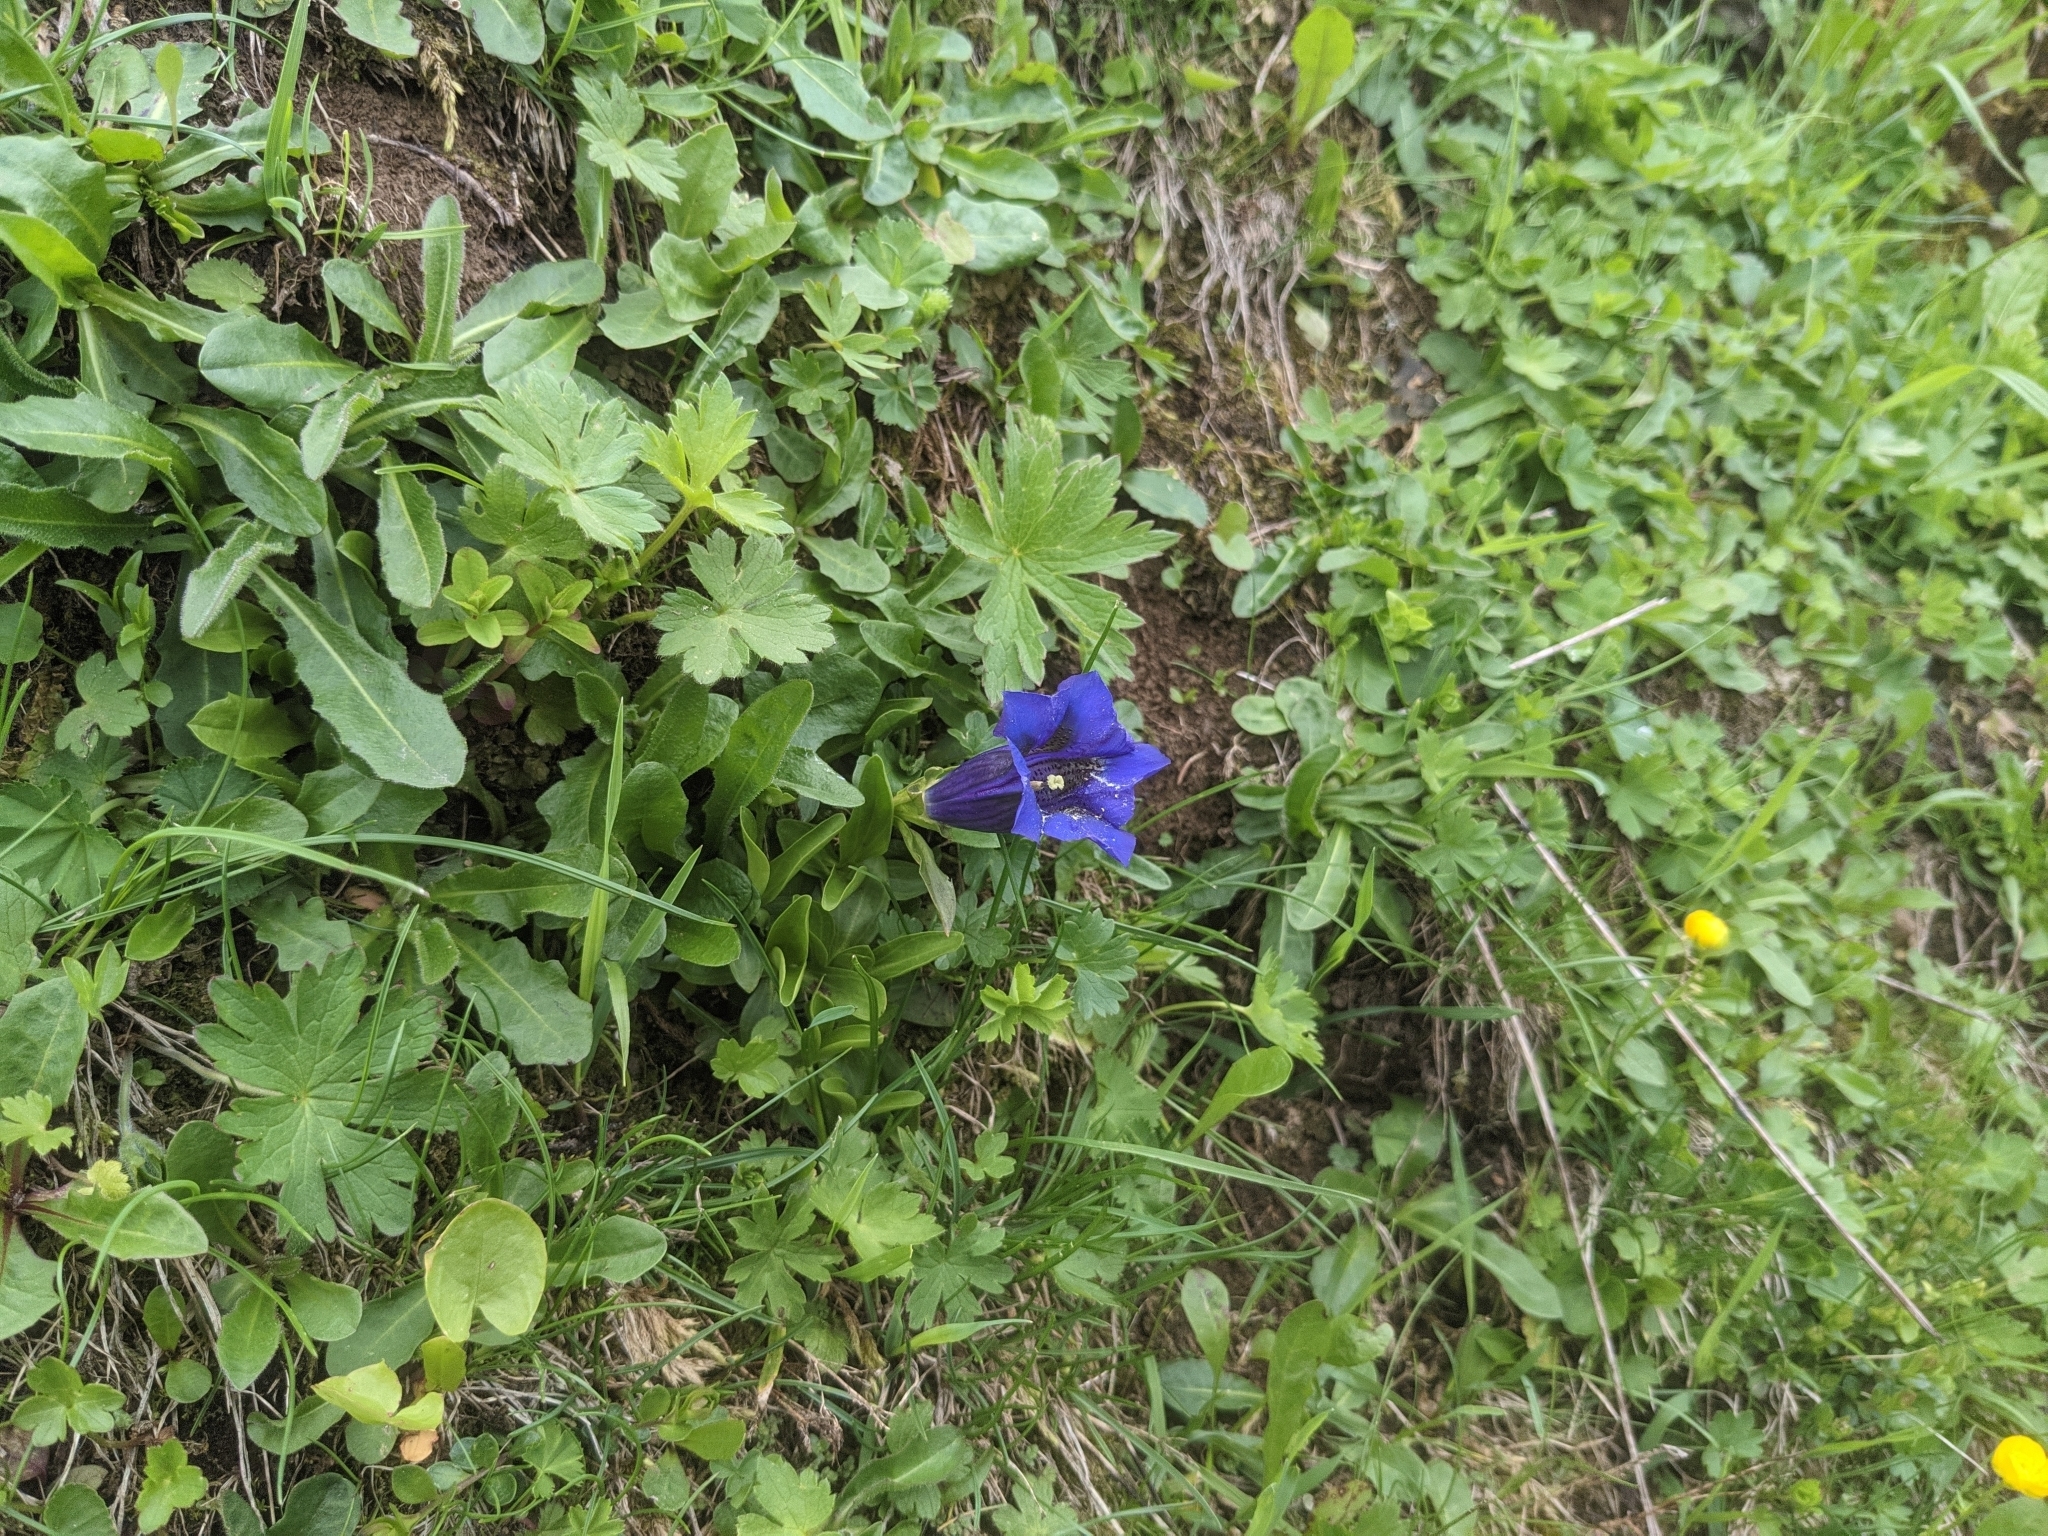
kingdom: Plantae
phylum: Tracheophyta
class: Magnoliopsida
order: Gentianales
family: Gentianaceae
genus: Gentiana
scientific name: Gentiana acaulis
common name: Trumpet gentian
